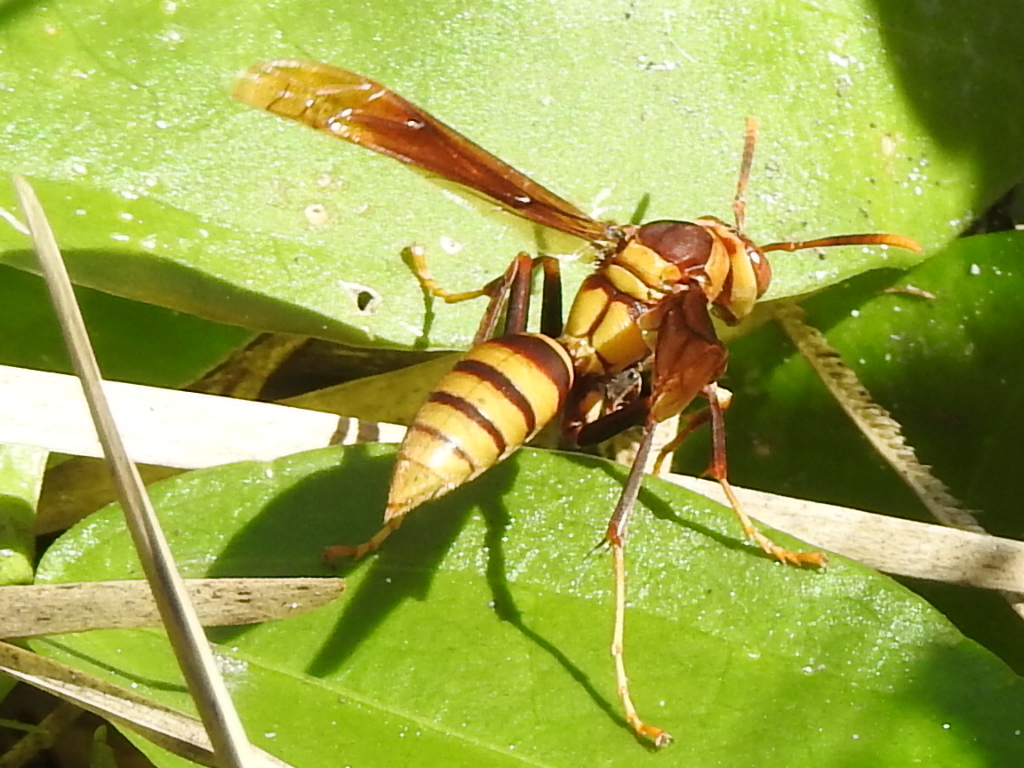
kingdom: Animalia
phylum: Arthropoda
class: Insecta
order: Hymenoptera
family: Eumenidae
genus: Polistes
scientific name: Polistes major
